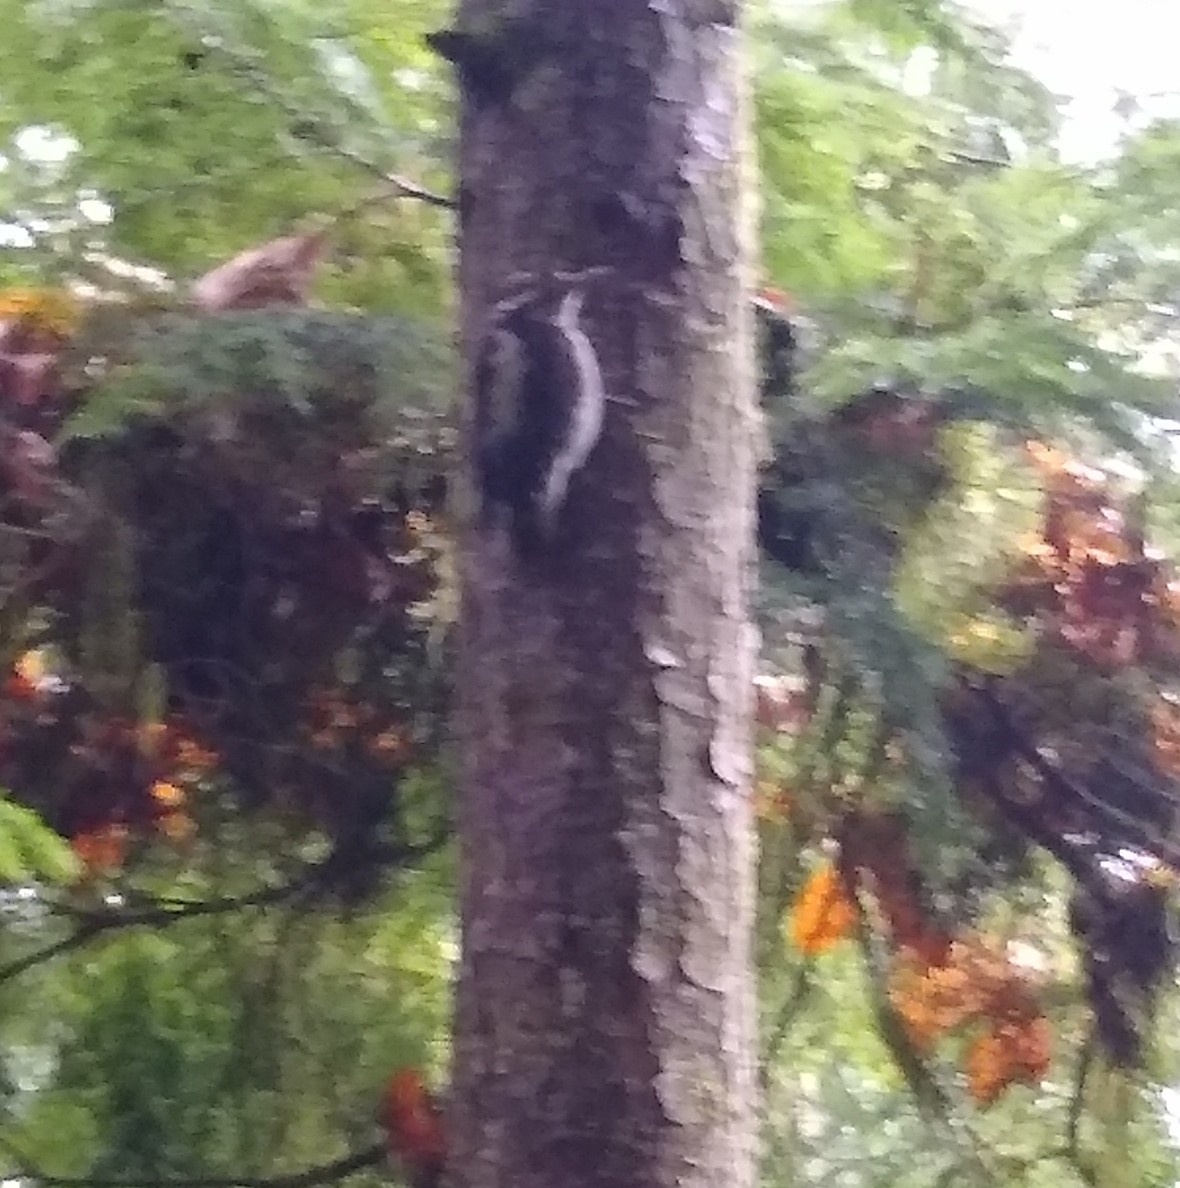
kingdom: Animalia
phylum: Chordata
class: Aves
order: Piciformes
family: Picidae
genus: Leuconotopicus
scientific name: Leuconotopicus villosus
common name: Hairy woodpecker
